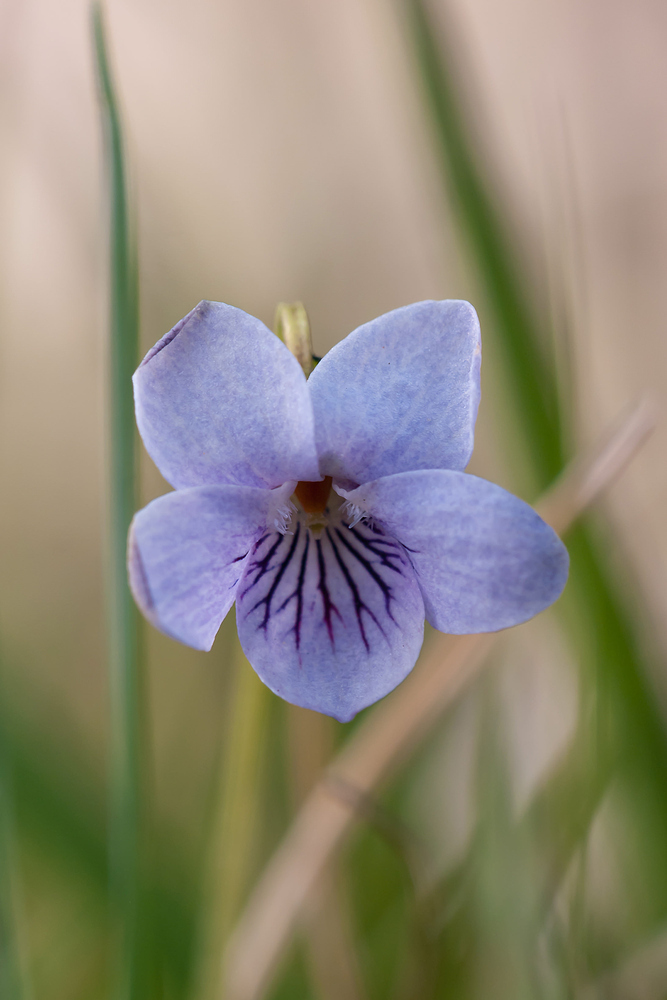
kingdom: Plantae
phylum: Tracheophyta
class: Magnoliopsida
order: Malpighiales
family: Violaceae
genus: Viola
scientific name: Viola palustris
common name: Marsh violet
